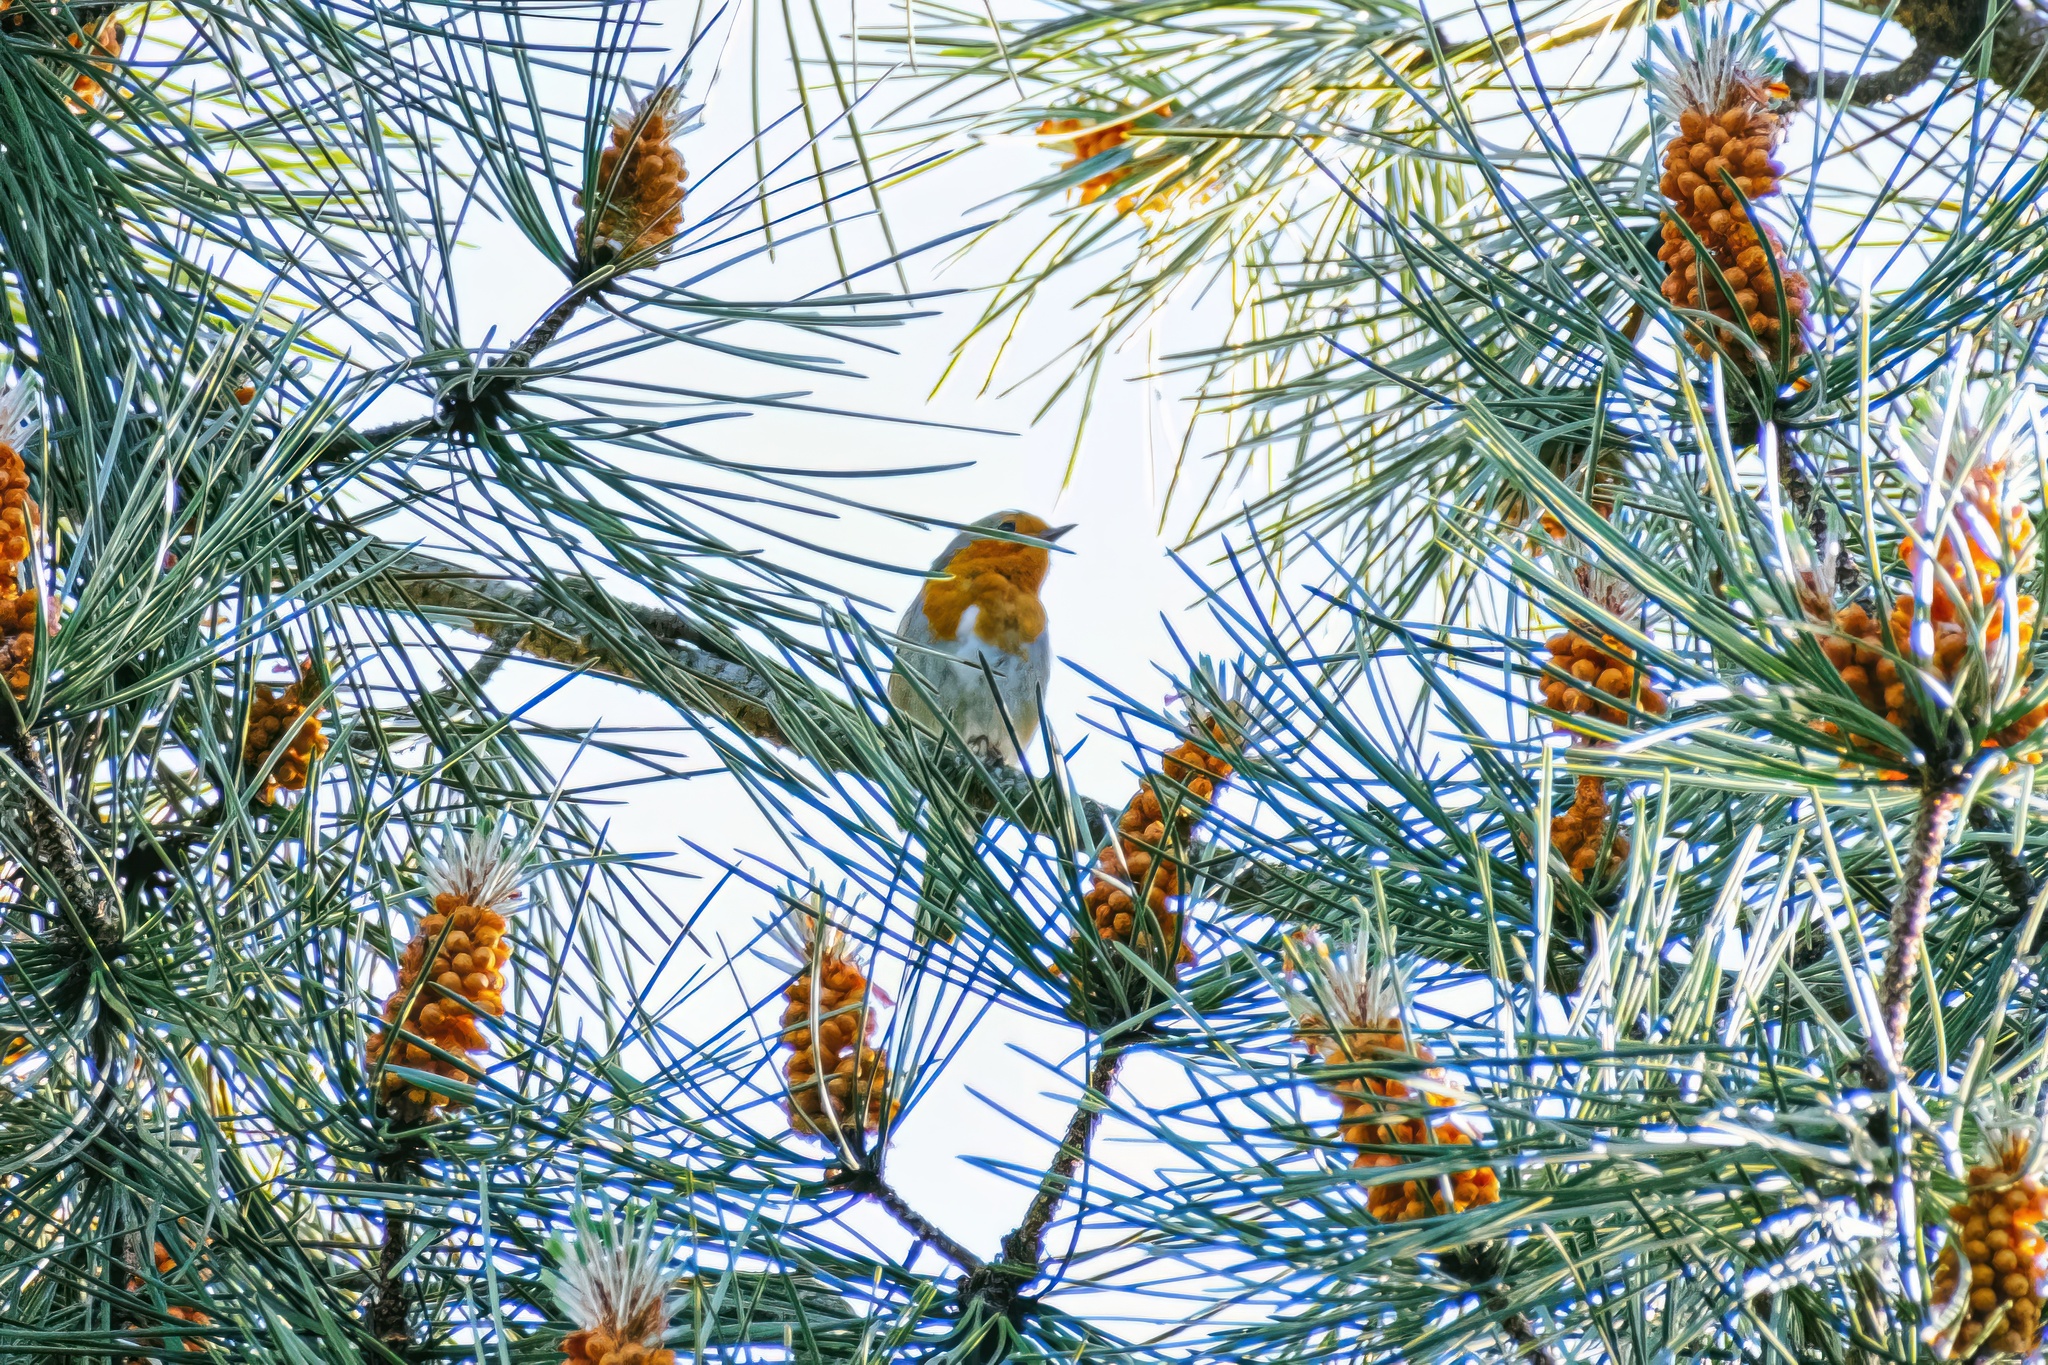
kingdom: Animalia
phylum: Chordata
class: Aves
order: Passeriformes
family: Muscicapidae
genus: Erithacus
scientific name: Erithacus rubecula
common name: European robin
